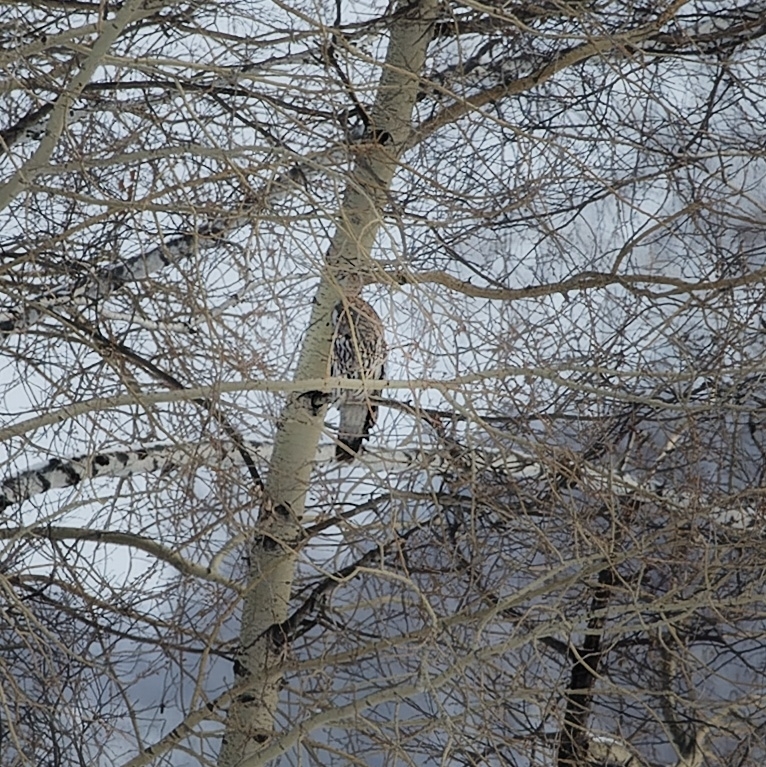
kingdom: Animalia
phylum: Chordata
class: Aves
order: Strigiformes
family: Strigidae
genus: Strix
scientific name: Strix nebulosa
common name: Great grey owl
